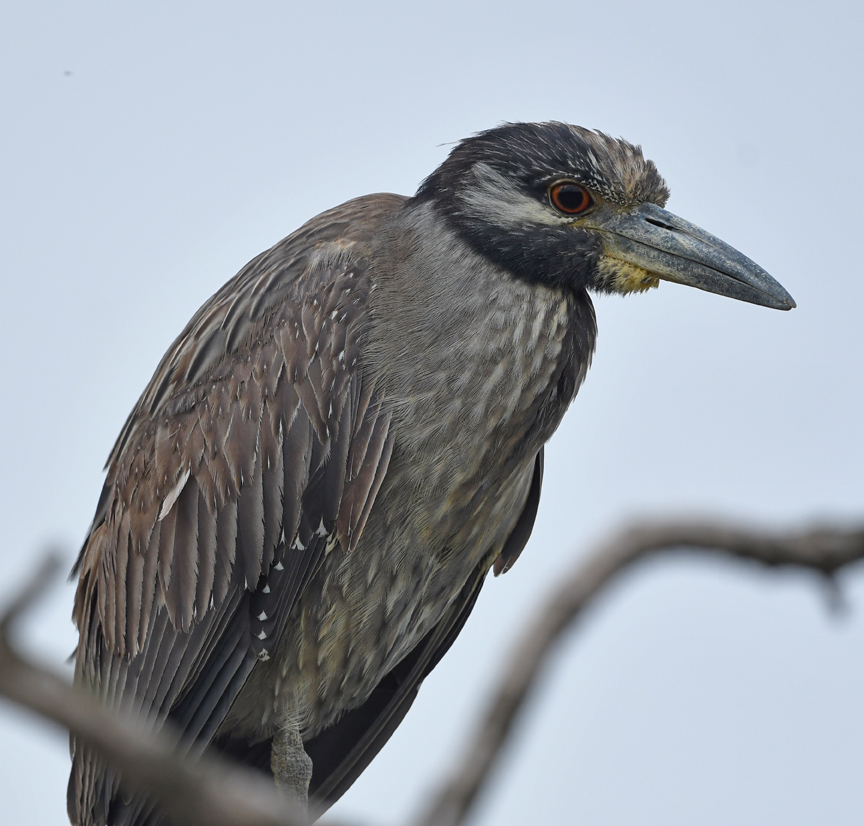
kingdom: Animalia
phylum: Chordata
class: Aves
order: Pelecaniformes
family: Ardeidae
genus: Nyctanassa
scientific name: Nyctanassa violacea
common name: Yellow-crowned night heron
